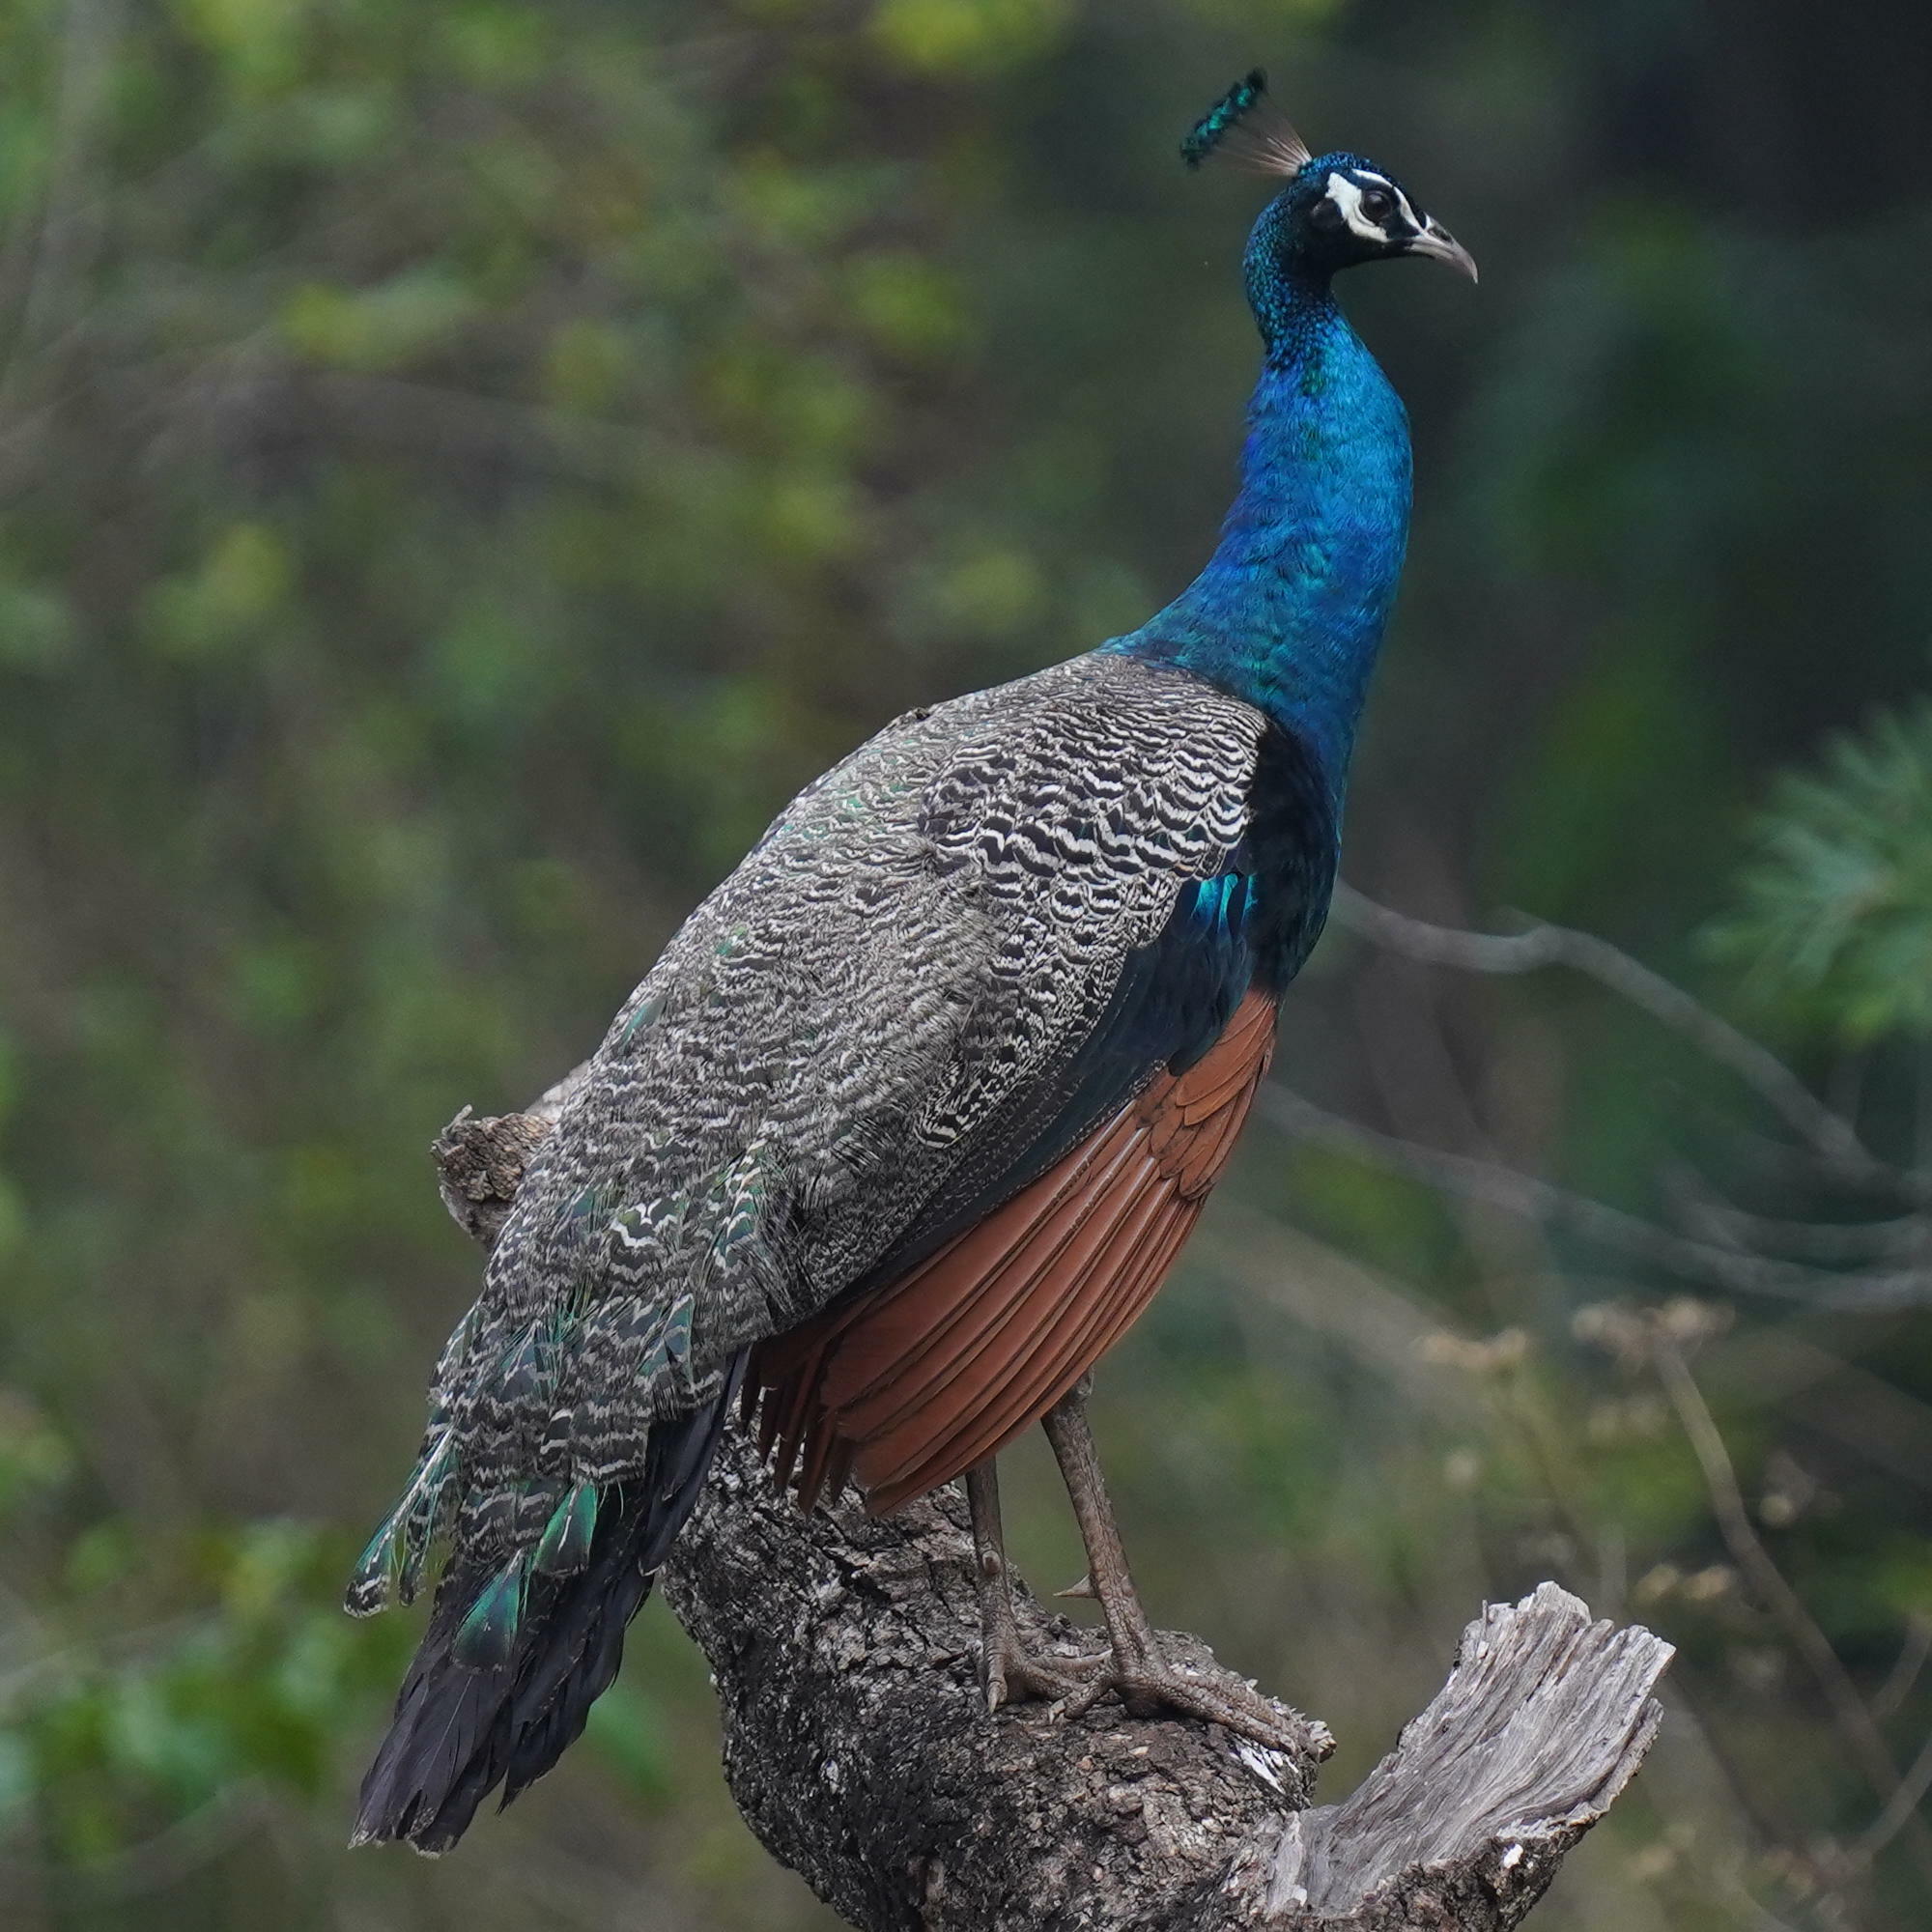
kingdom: Animalia
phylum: Chordata
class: Aves
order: Galliformes
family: Phasianidae
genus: Pavo
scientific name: Pavo cristatus
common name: Indian peafowl
